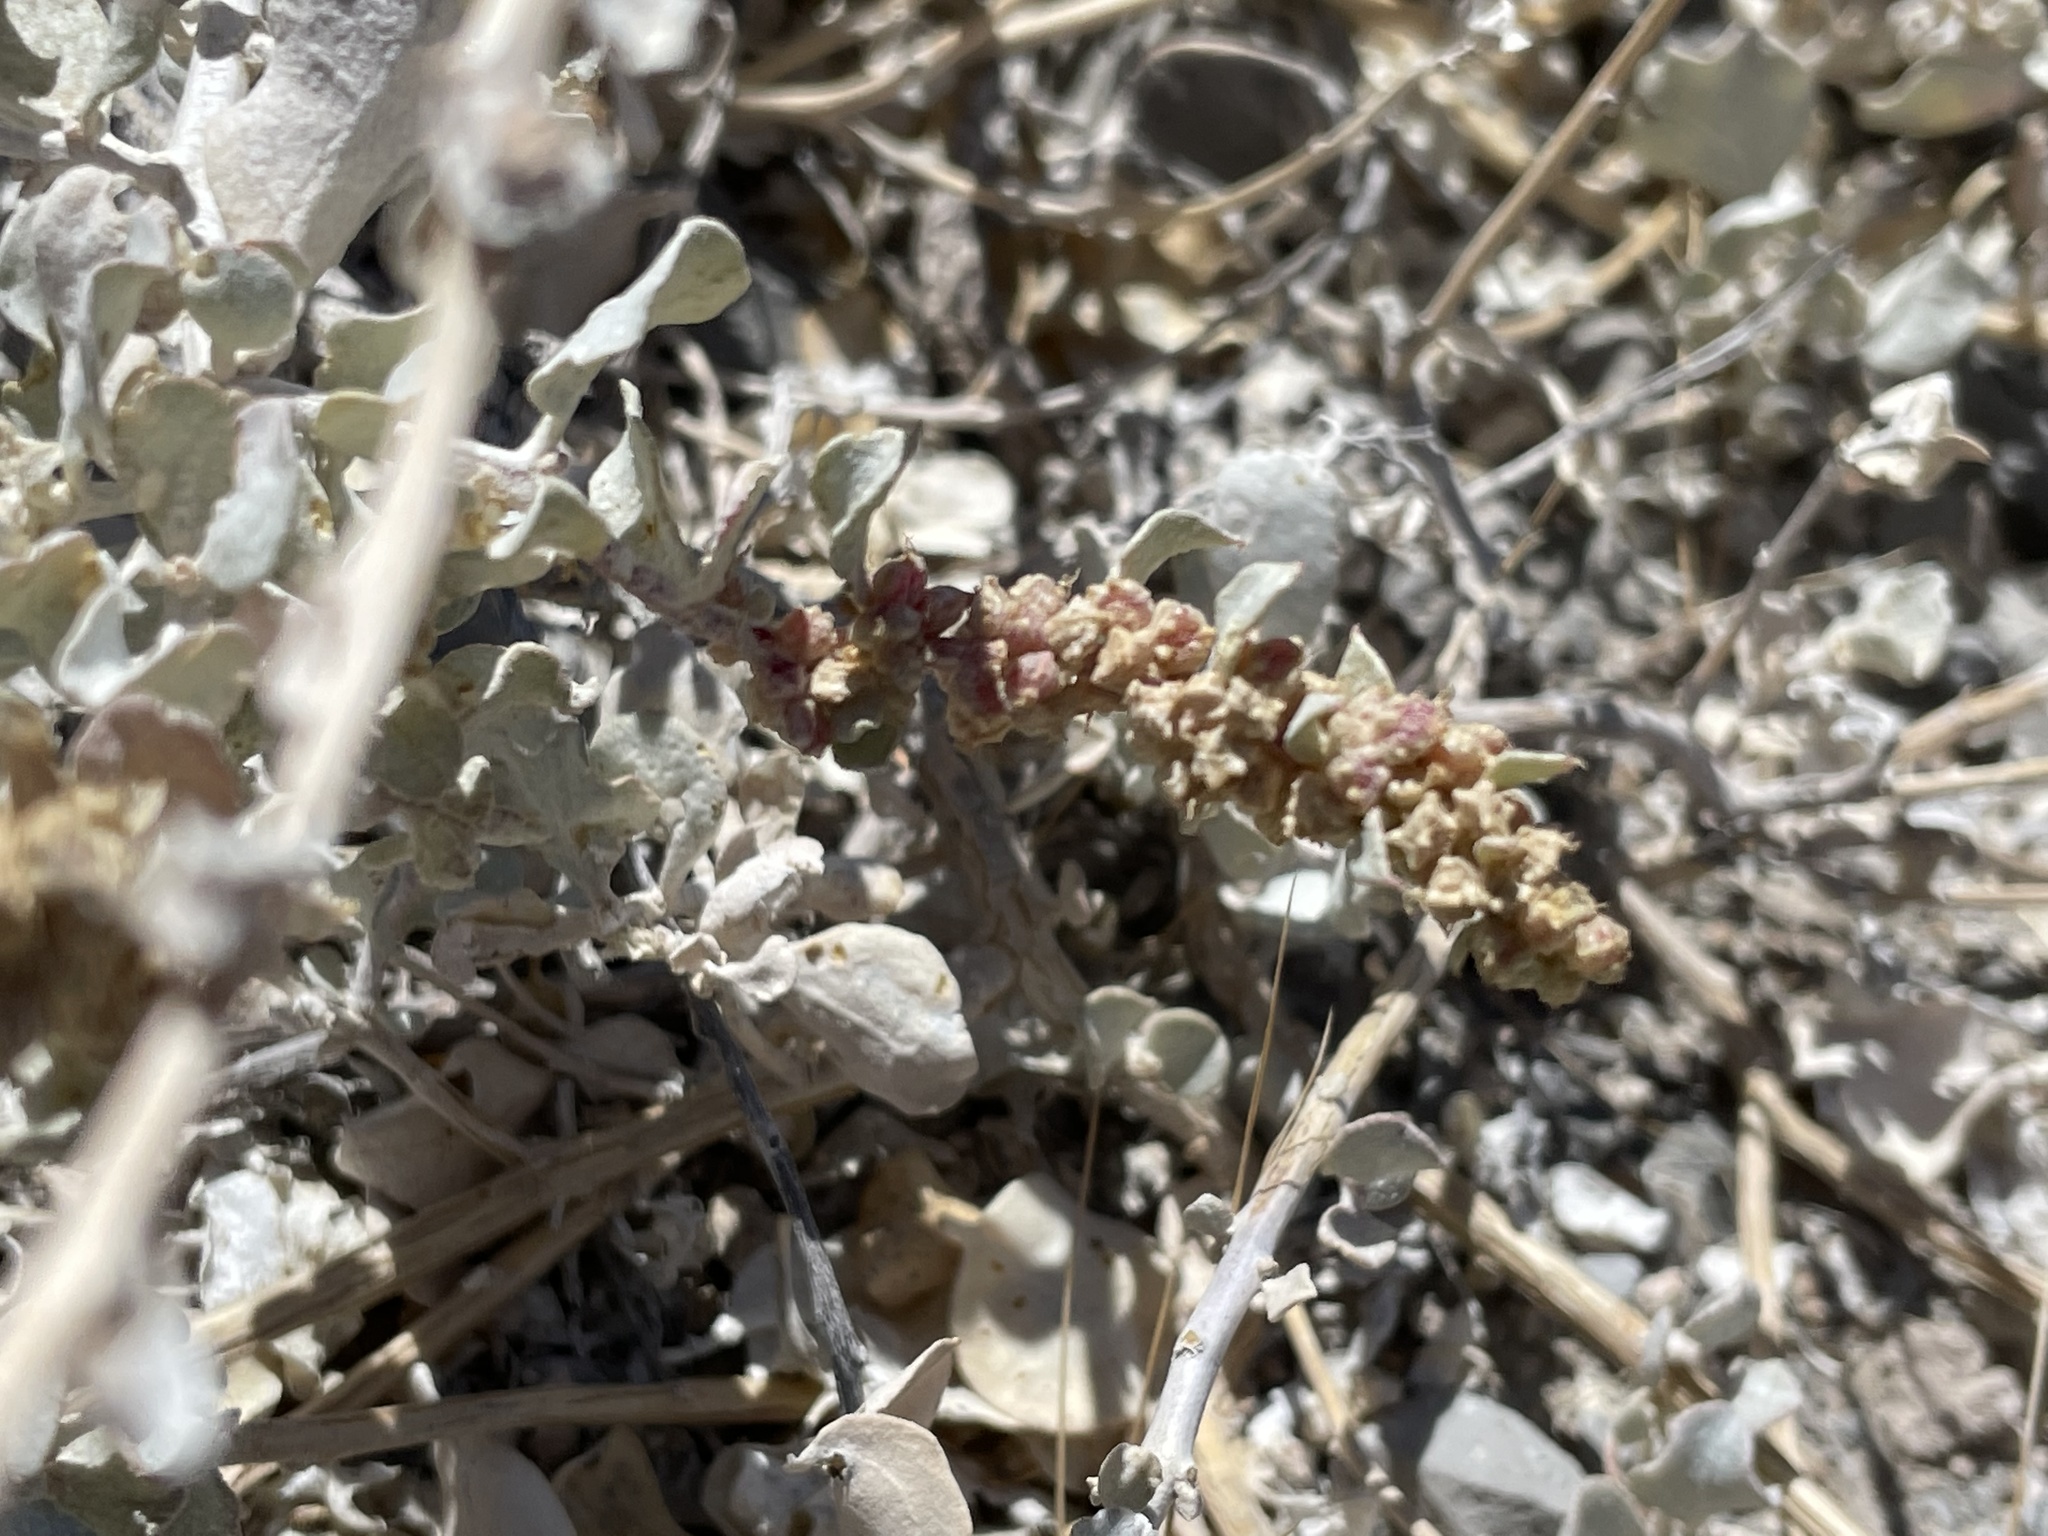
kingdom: Plantae
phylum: Tracheophyta
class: Magnoliopsida
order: Caryophyllales
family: Amaranthaceae
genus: Atriplex
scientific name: Atriplex barclayana
